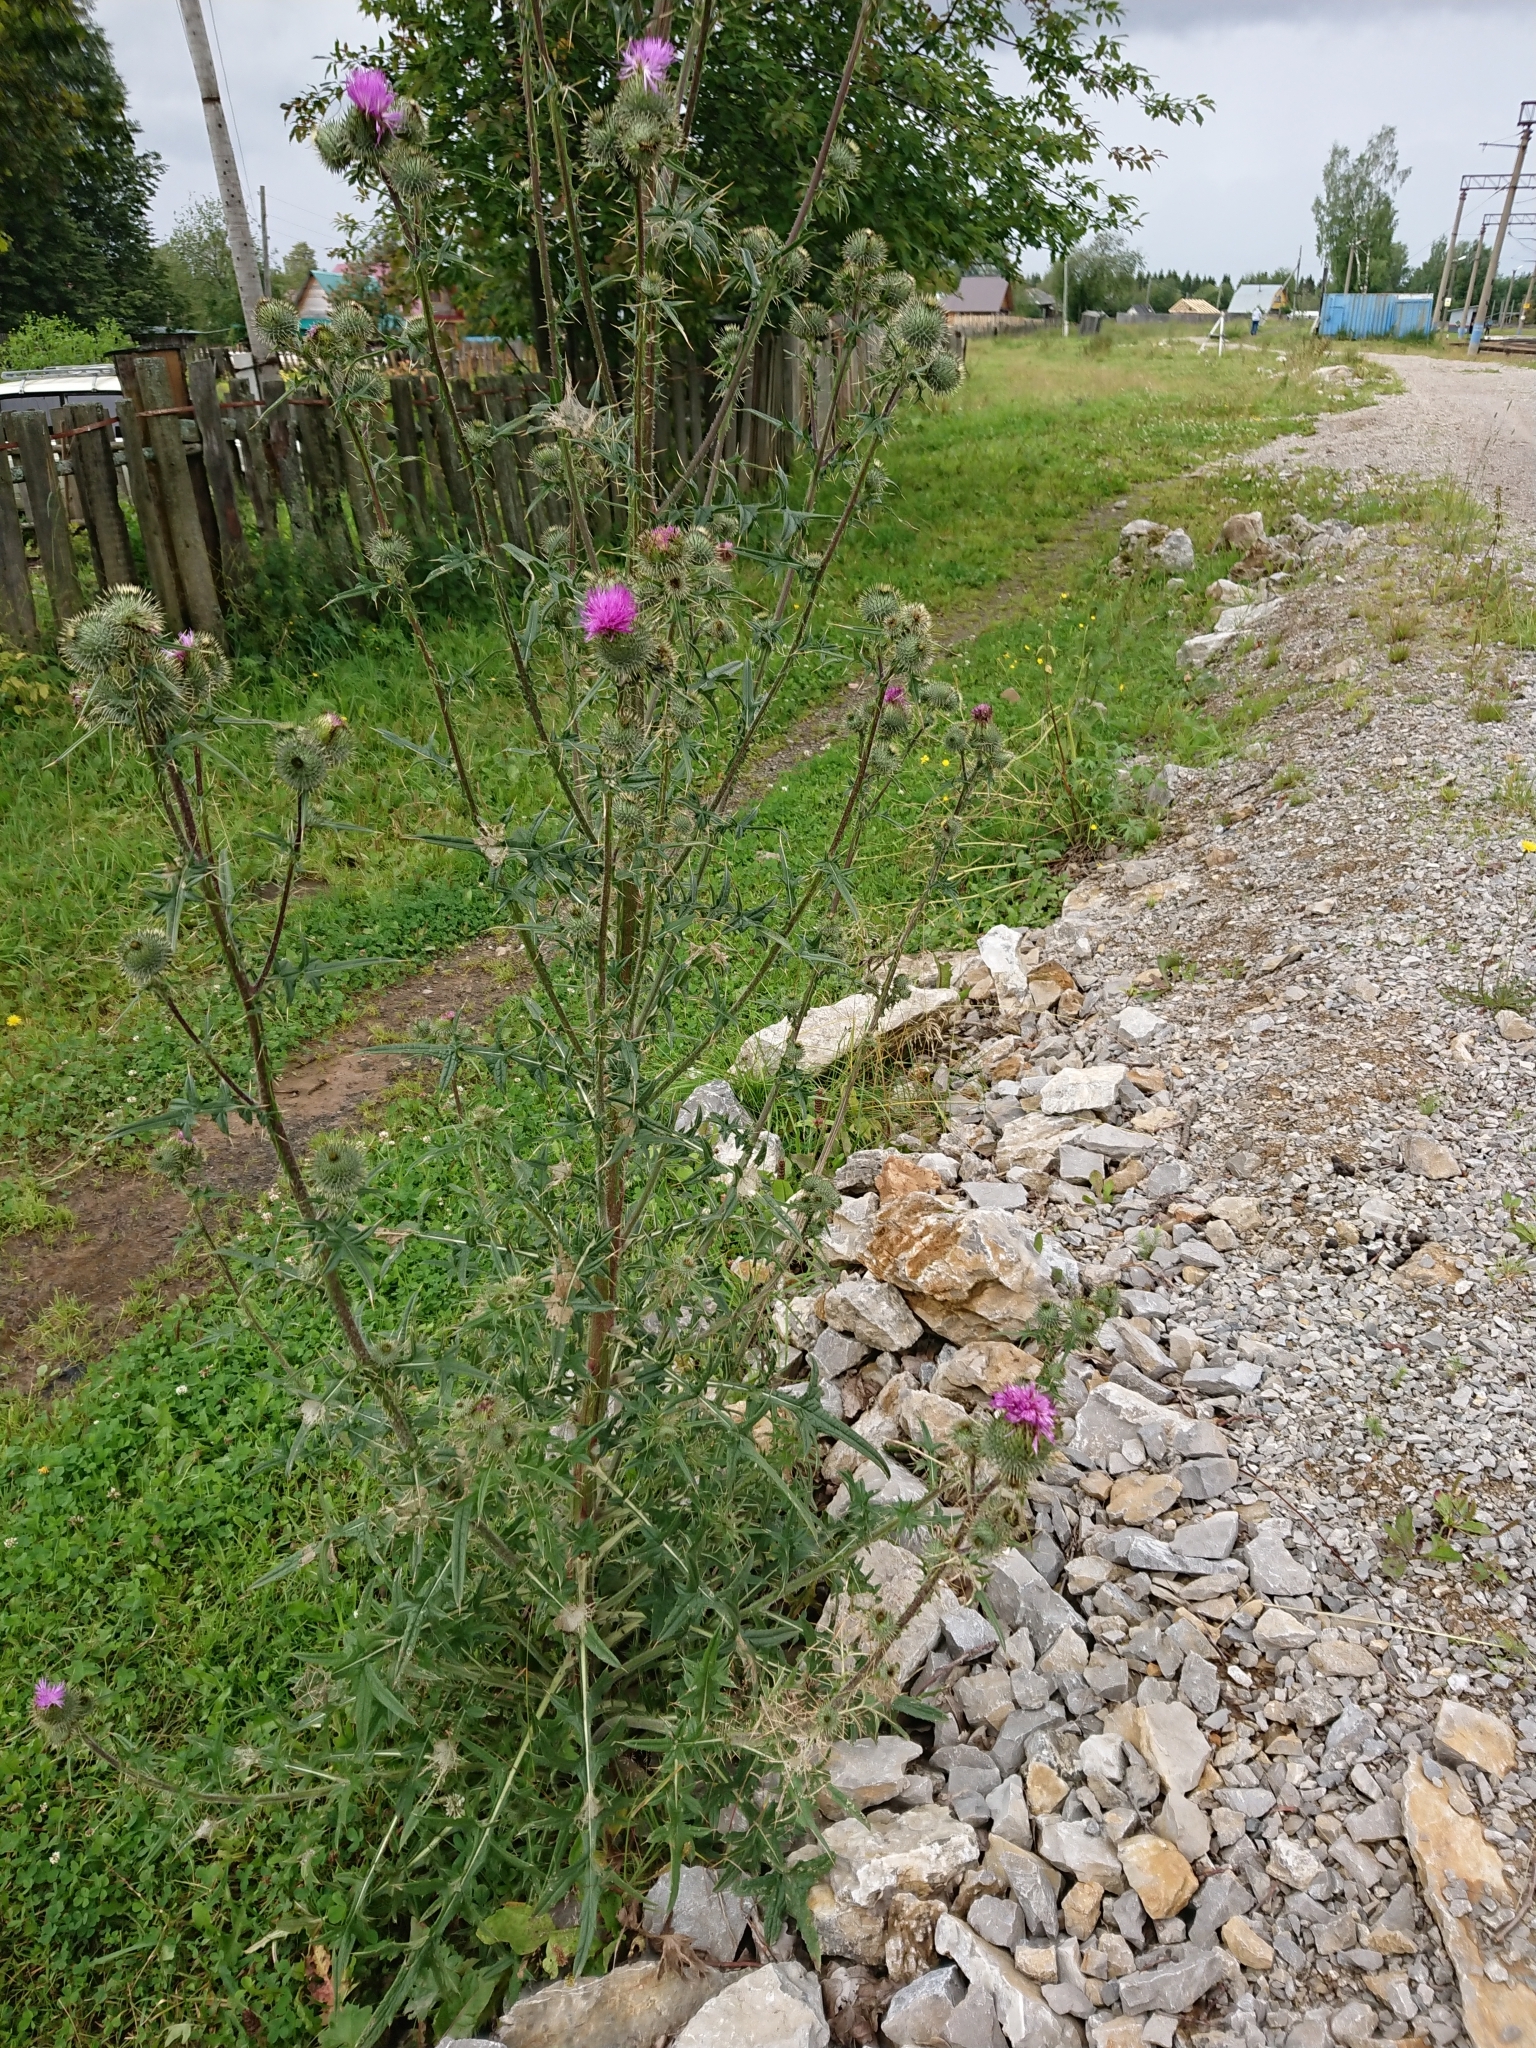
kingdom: Plantae
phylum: Tracheophyta
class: Magnoliopsida
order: Asterales
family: Asteraceae
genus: Cirsium
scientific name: Cirsium vulgare
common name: Bull thistle
